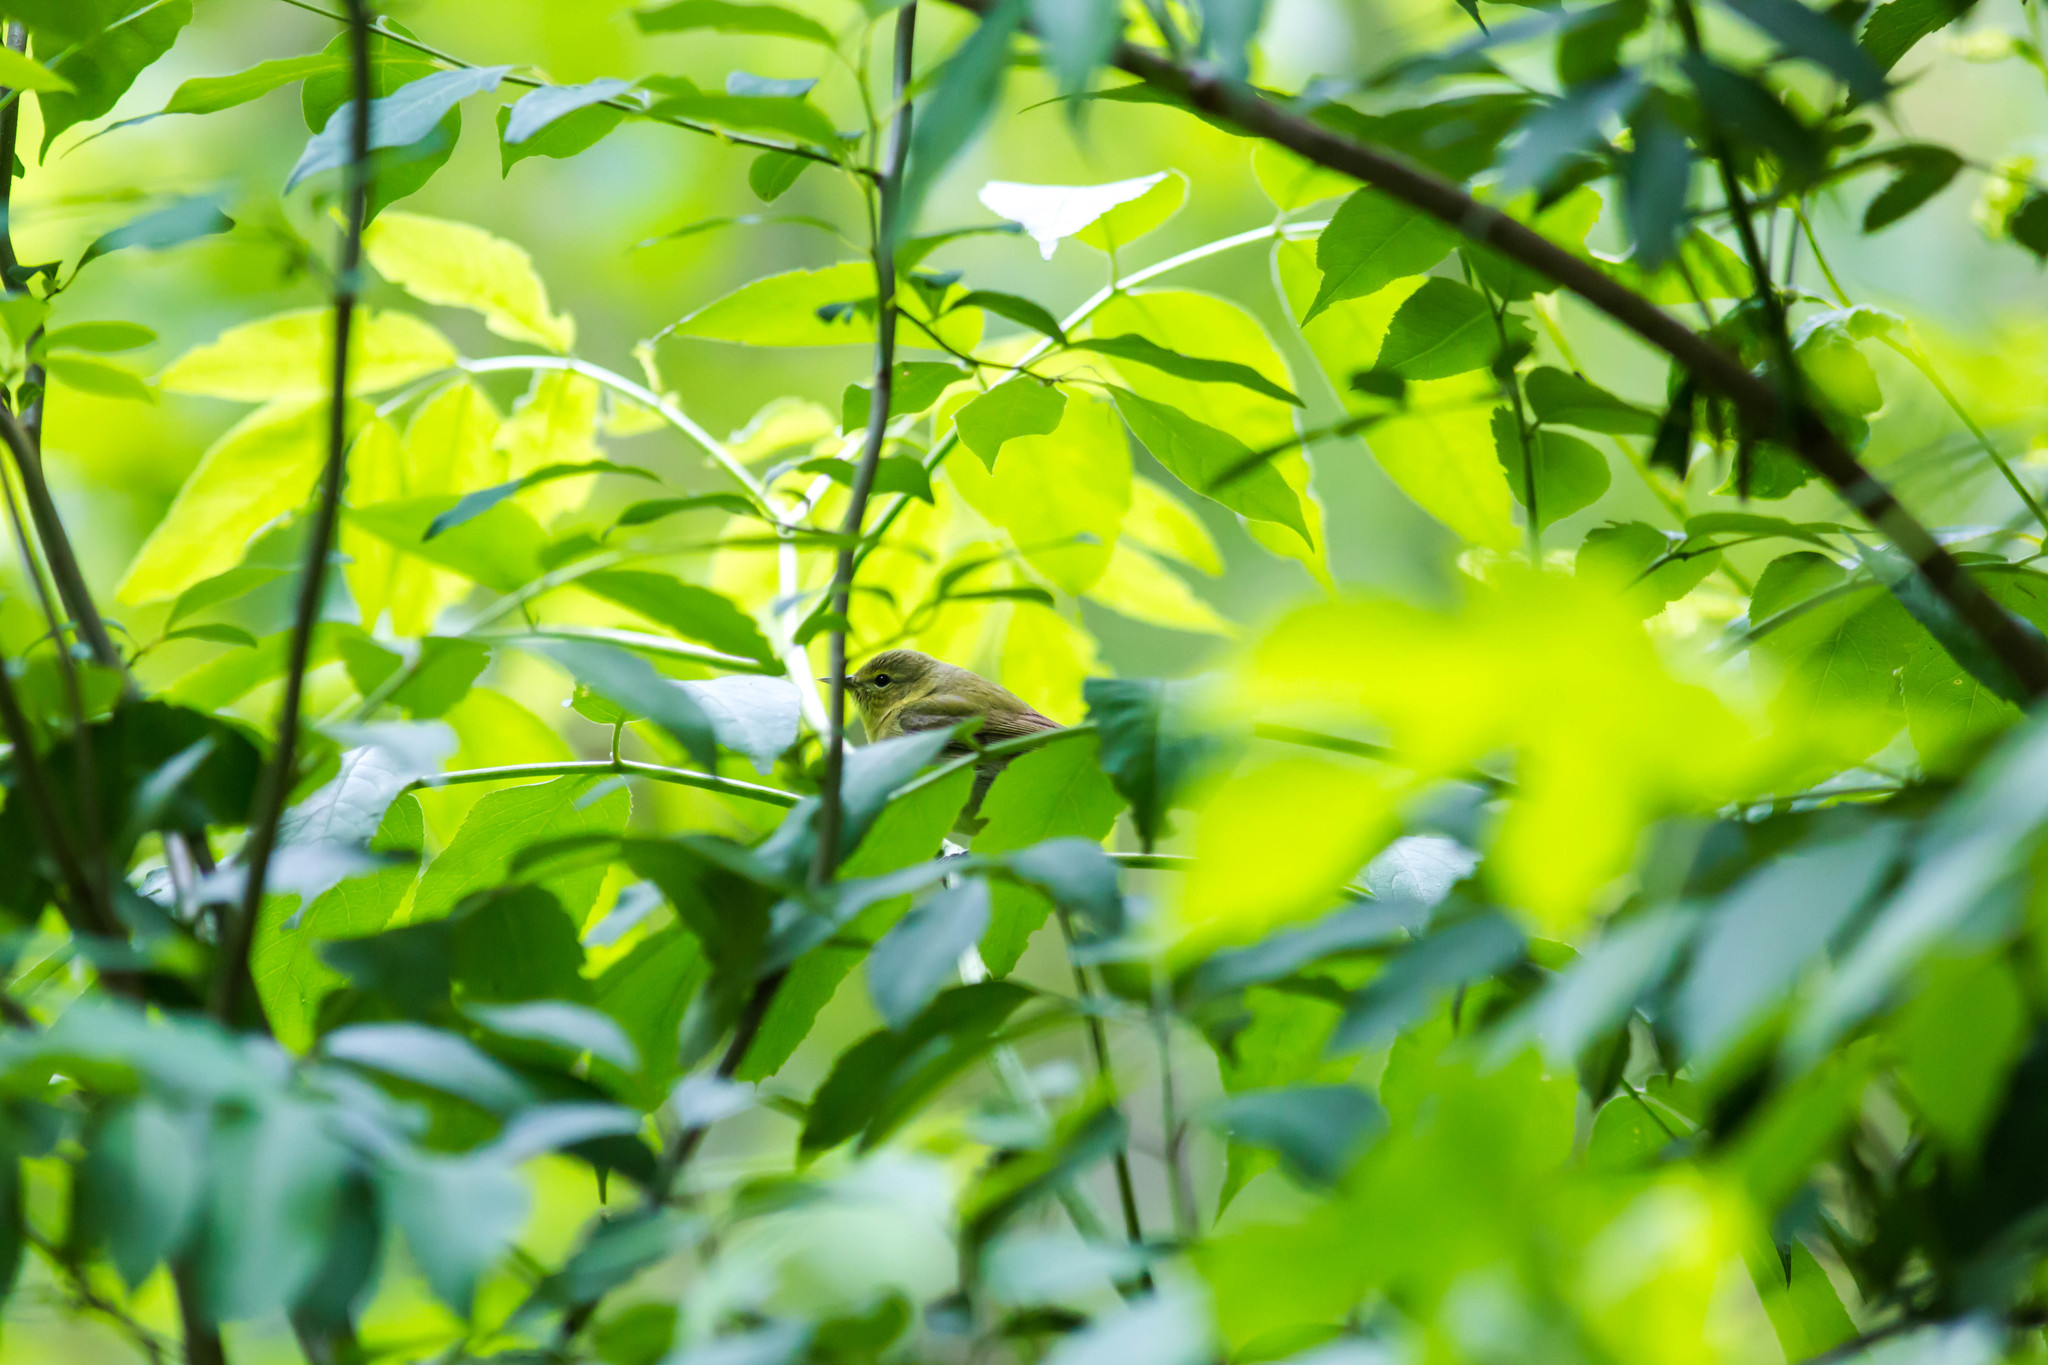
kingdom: Animalia
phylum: Chordata
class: Aves
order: Passeriformes
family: Parulidae
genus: Leiothlypis
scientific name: Leiothlypis celata
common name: Orange-crowned warbler
